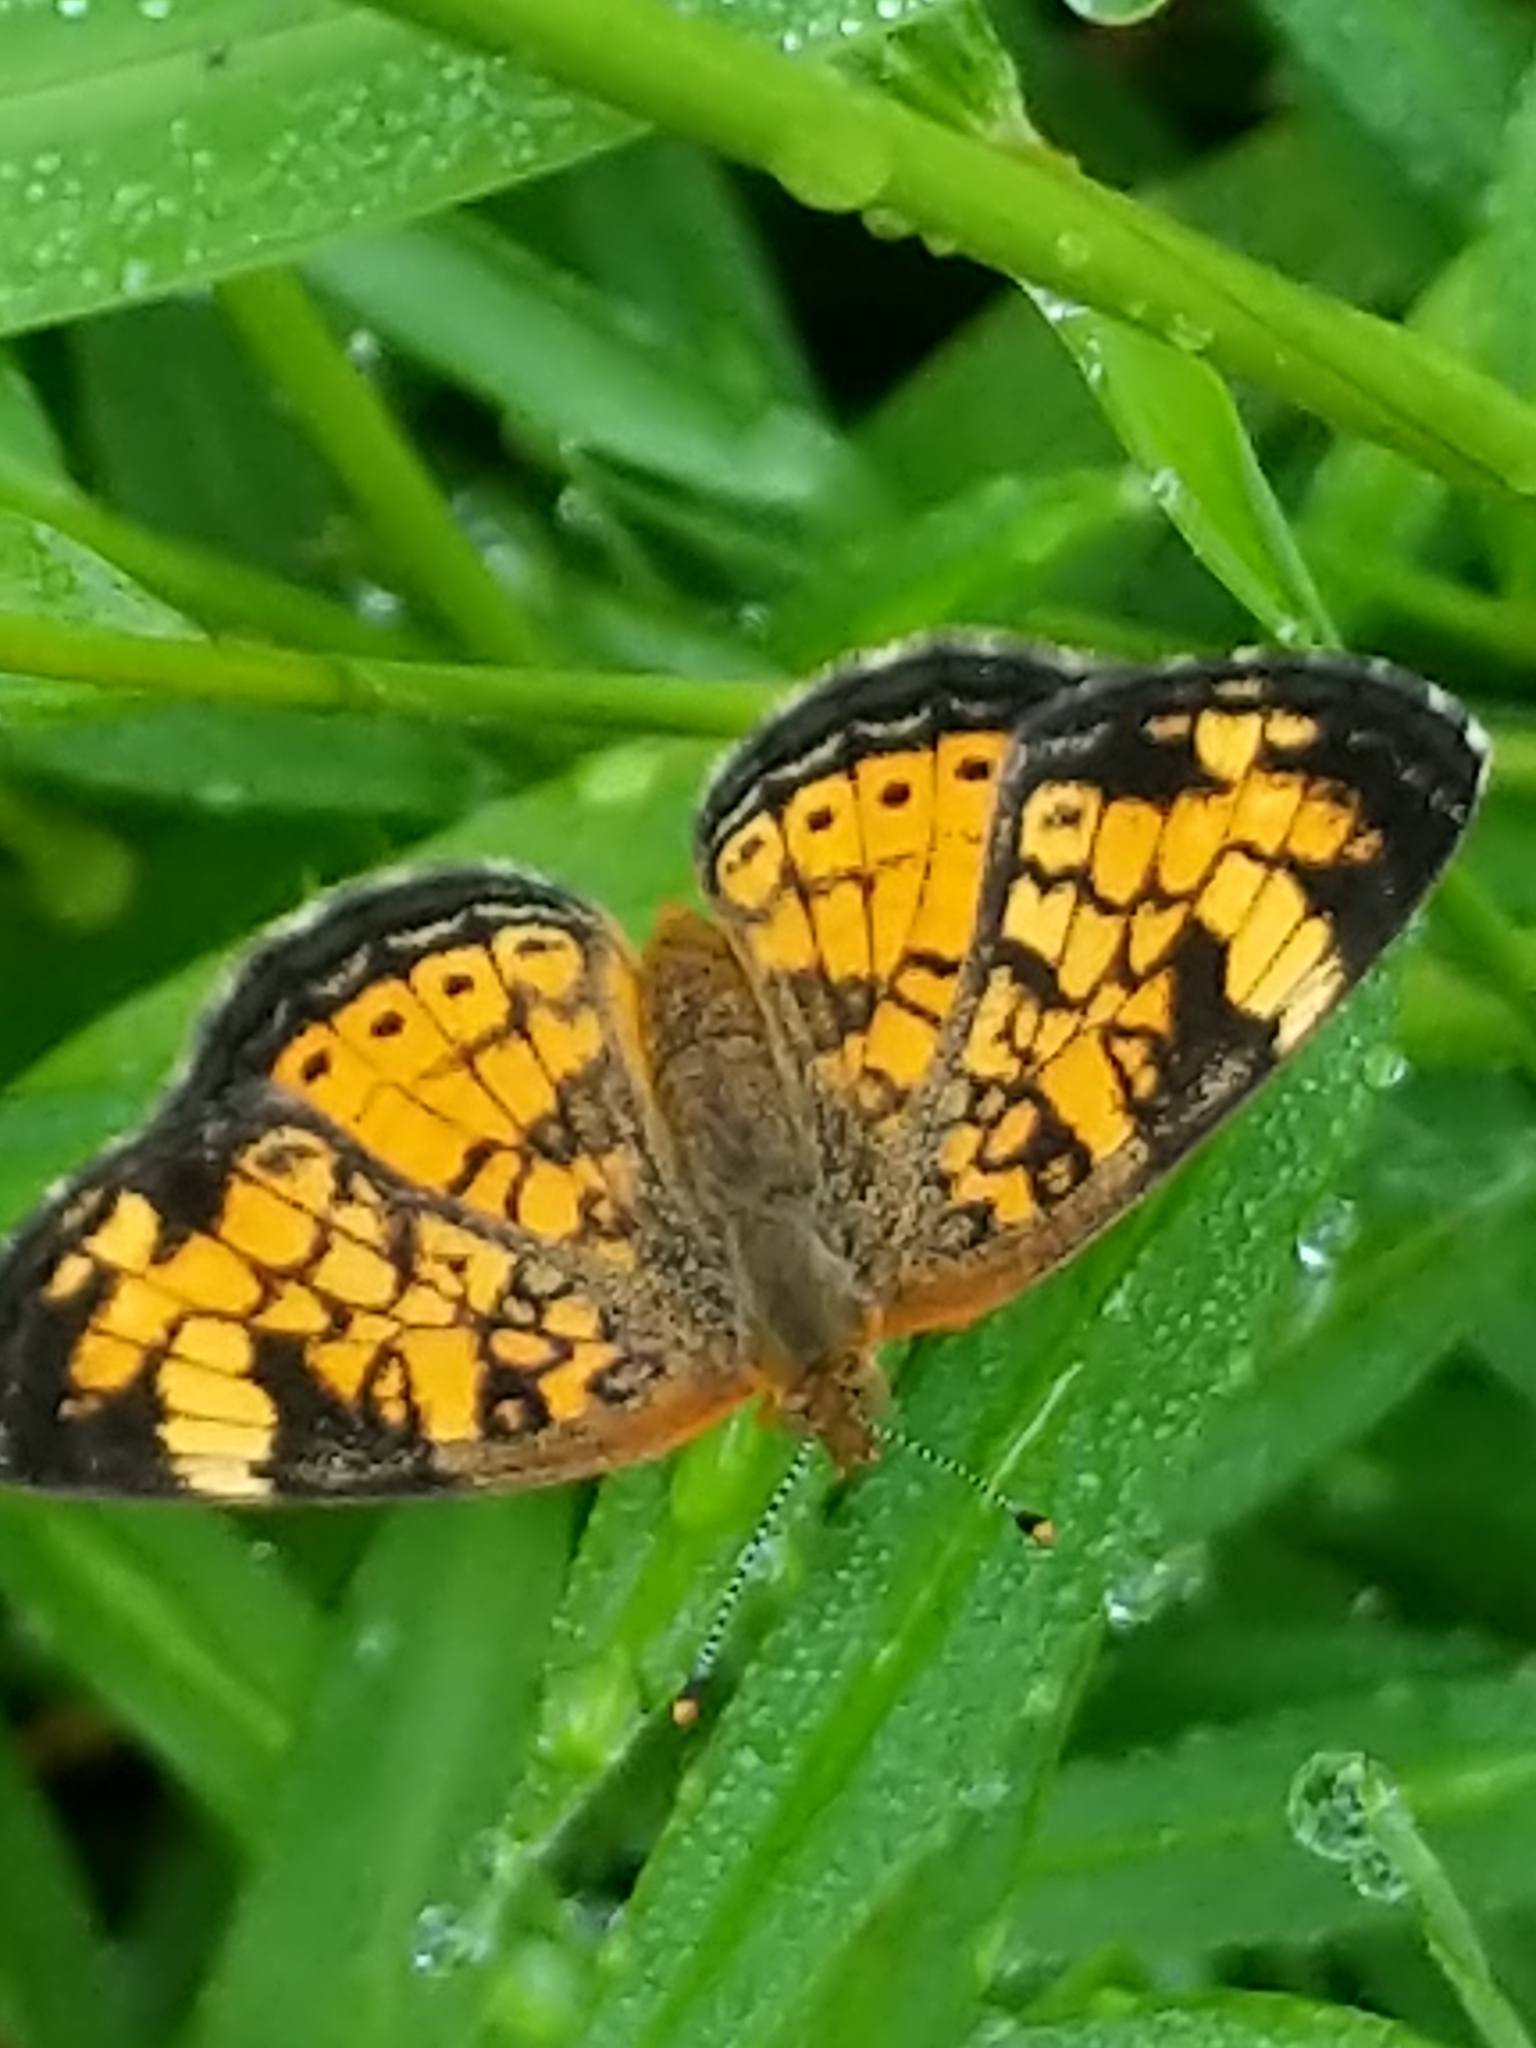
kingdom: Animalia
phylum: Arthropoda
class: Insecta
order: Lepidoptera
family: Nymphalidae
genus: Phyciodes
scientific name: Phyciodes tharos
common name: Pearl crescent
